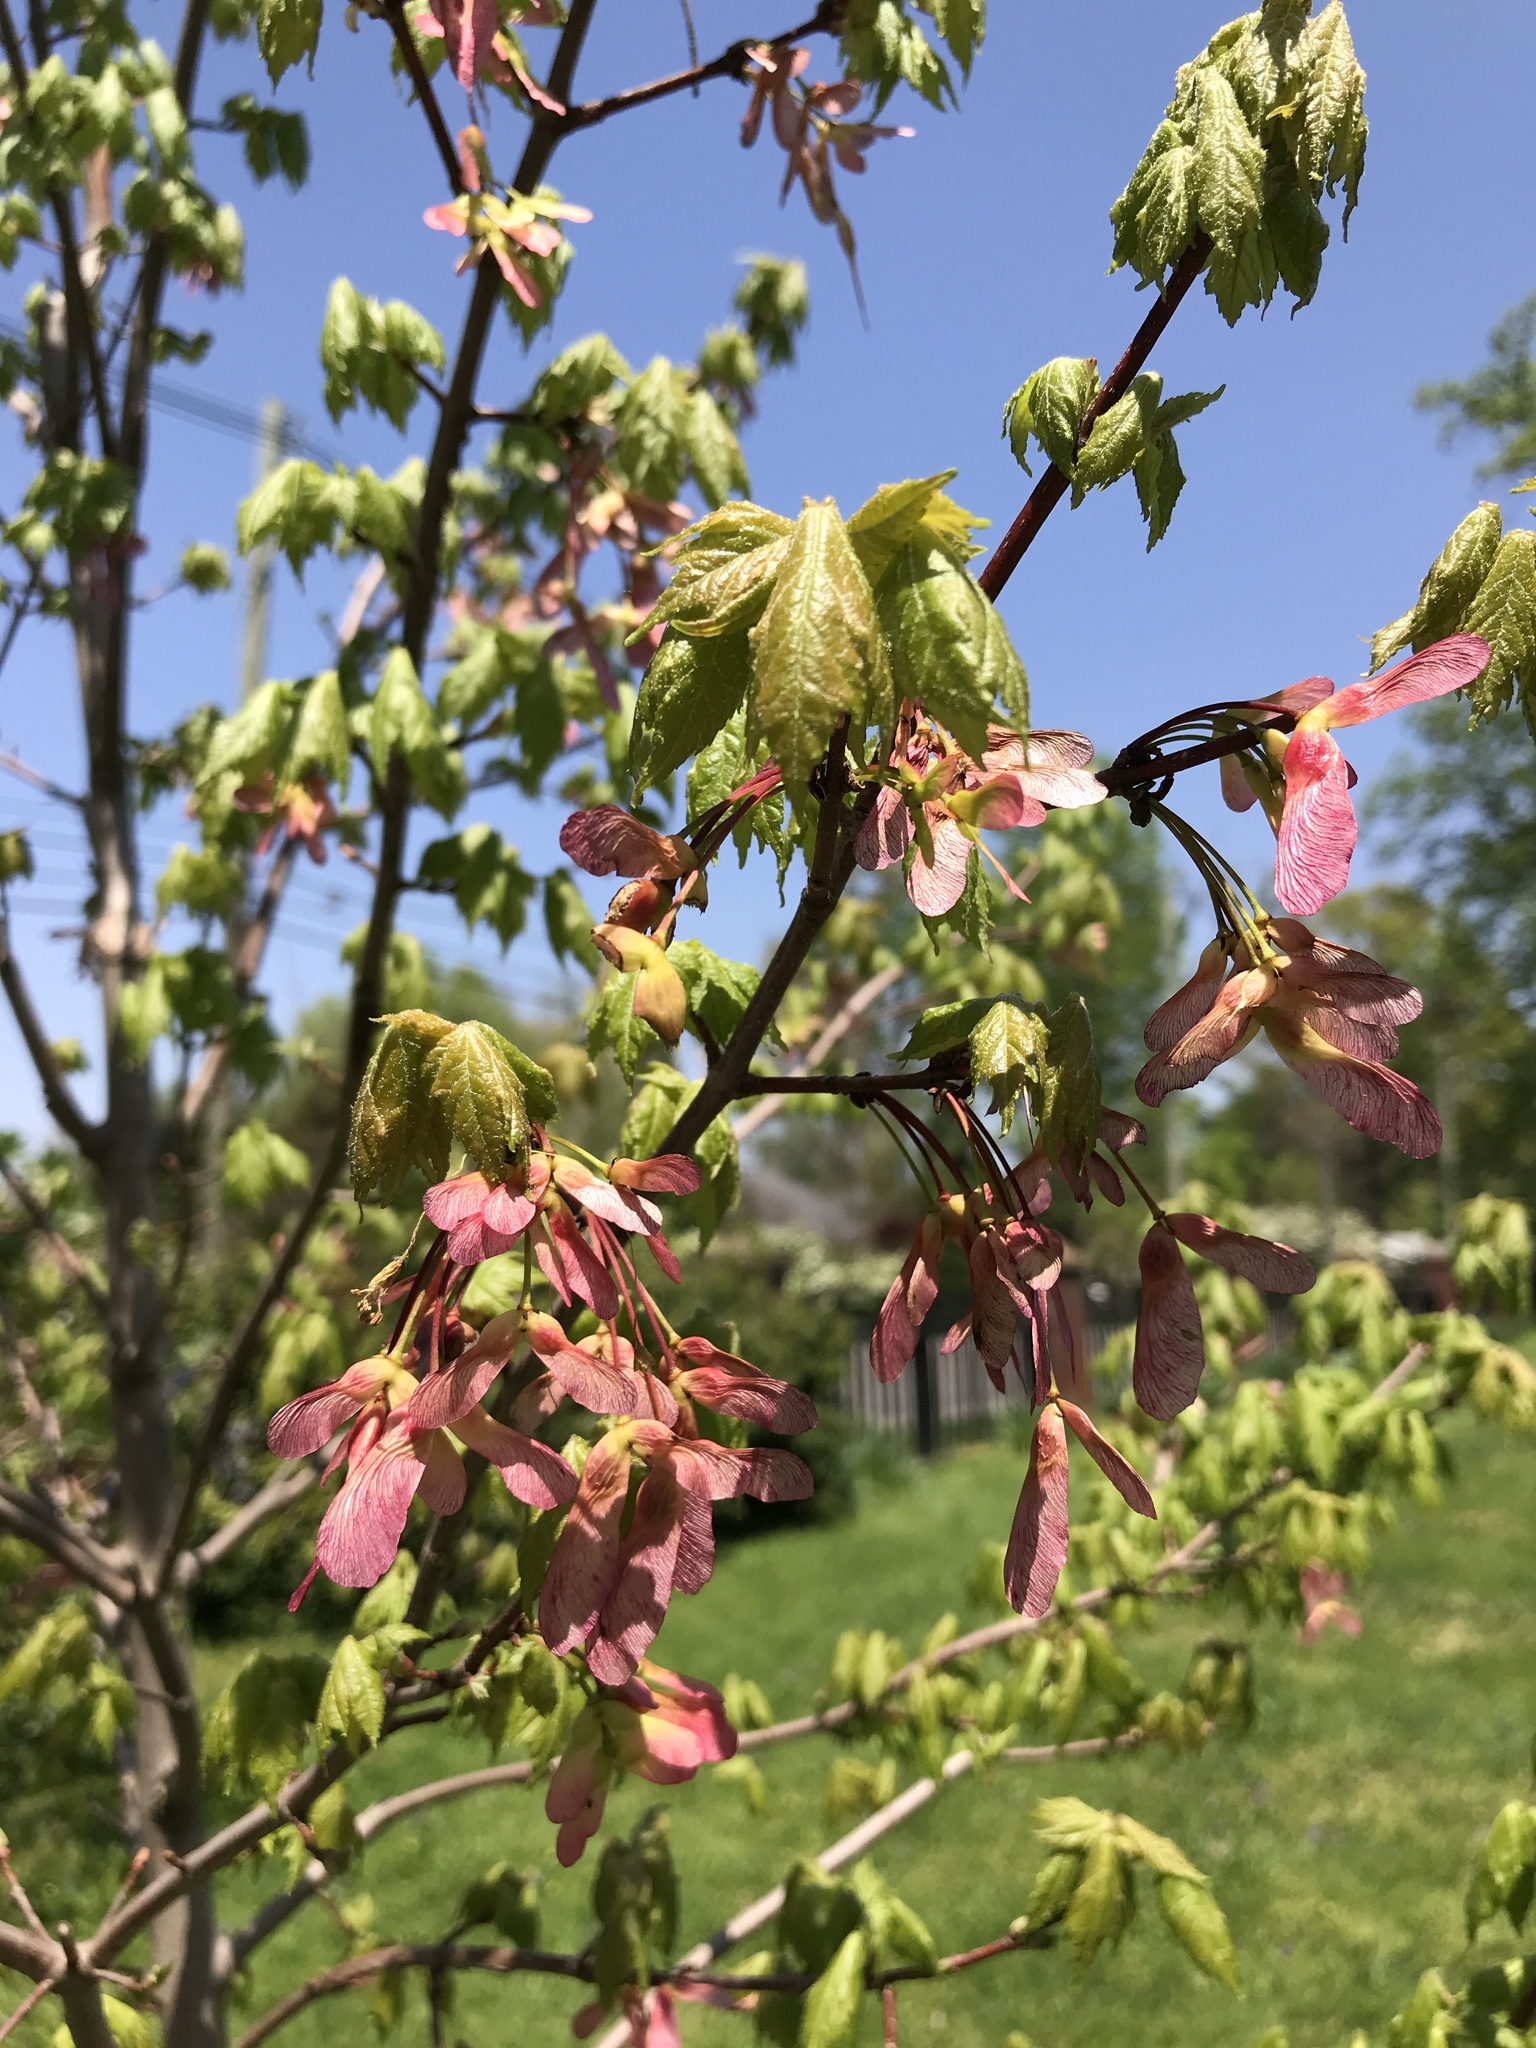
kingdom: Plantae
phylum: Tracheophyta
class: Magnoliopsida
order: Sapindales
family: Sapindaceae
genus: Acer
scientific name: Acer rubrum
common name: Red maple
